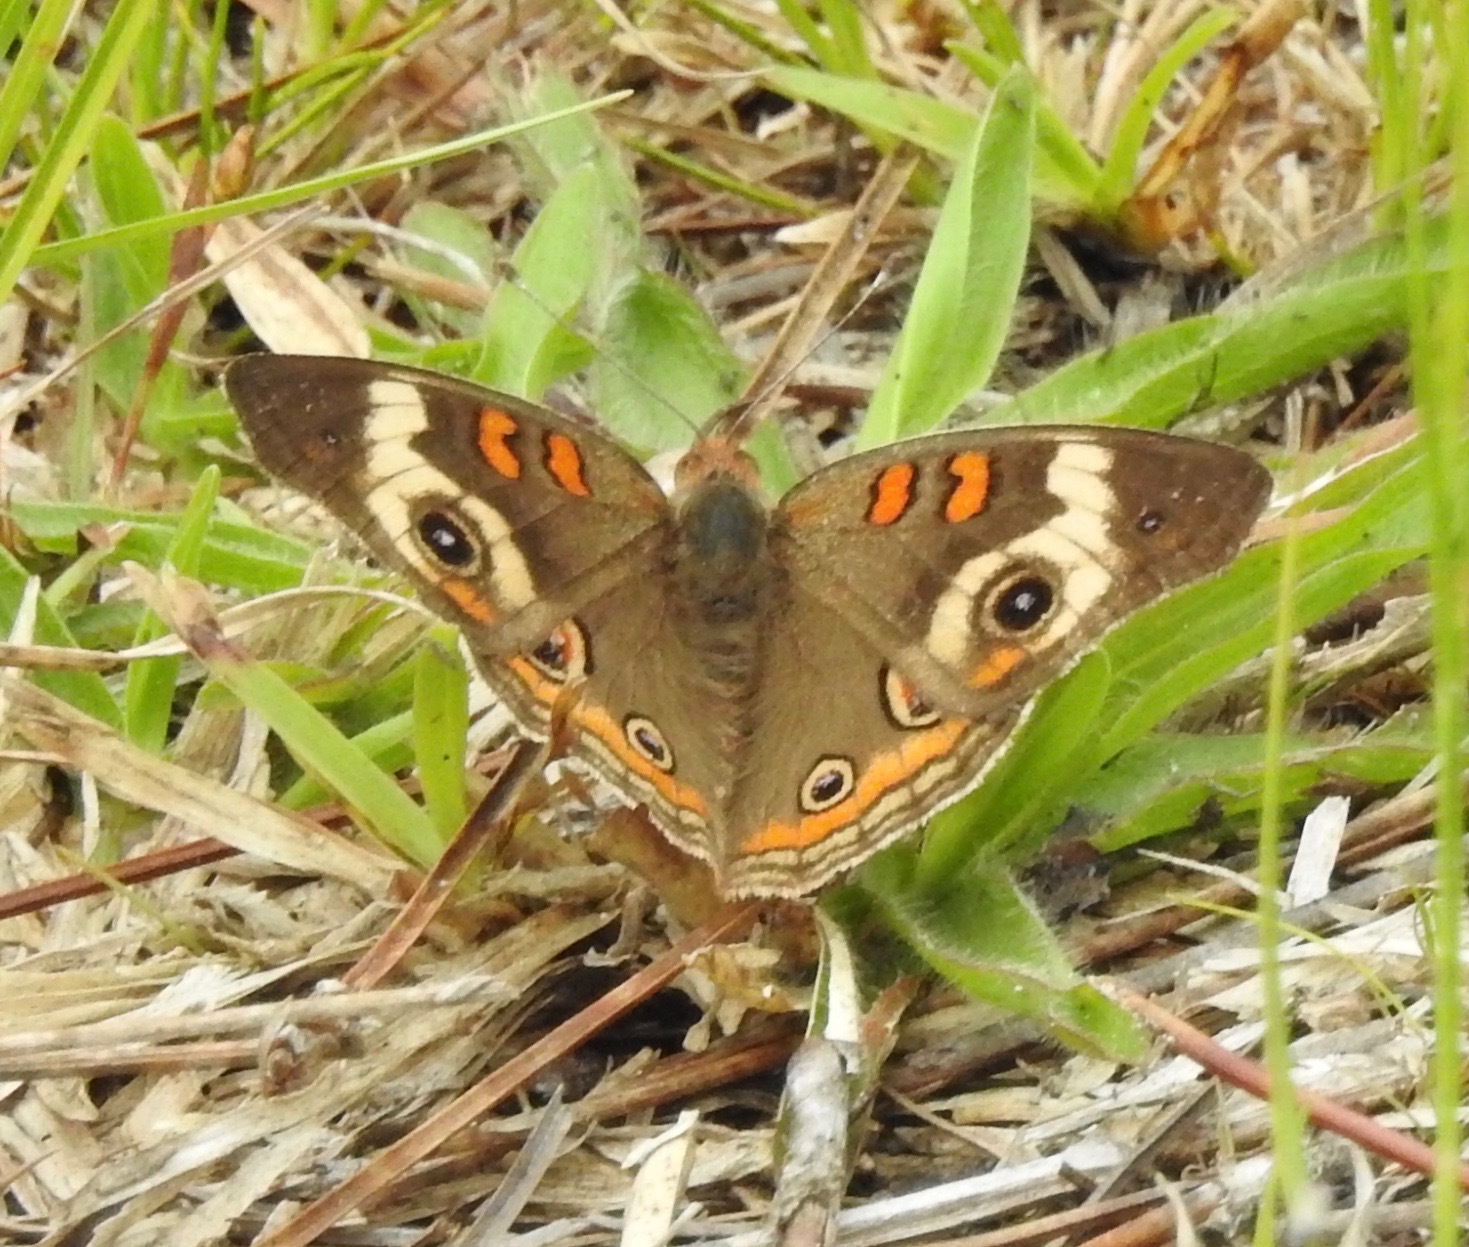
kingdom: Animalia
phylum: Arthropoda
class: Insecta
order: Lepidoptera
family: Nymphalidae
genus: Junonia
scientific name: Junonia coenia
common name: Common buckeye
